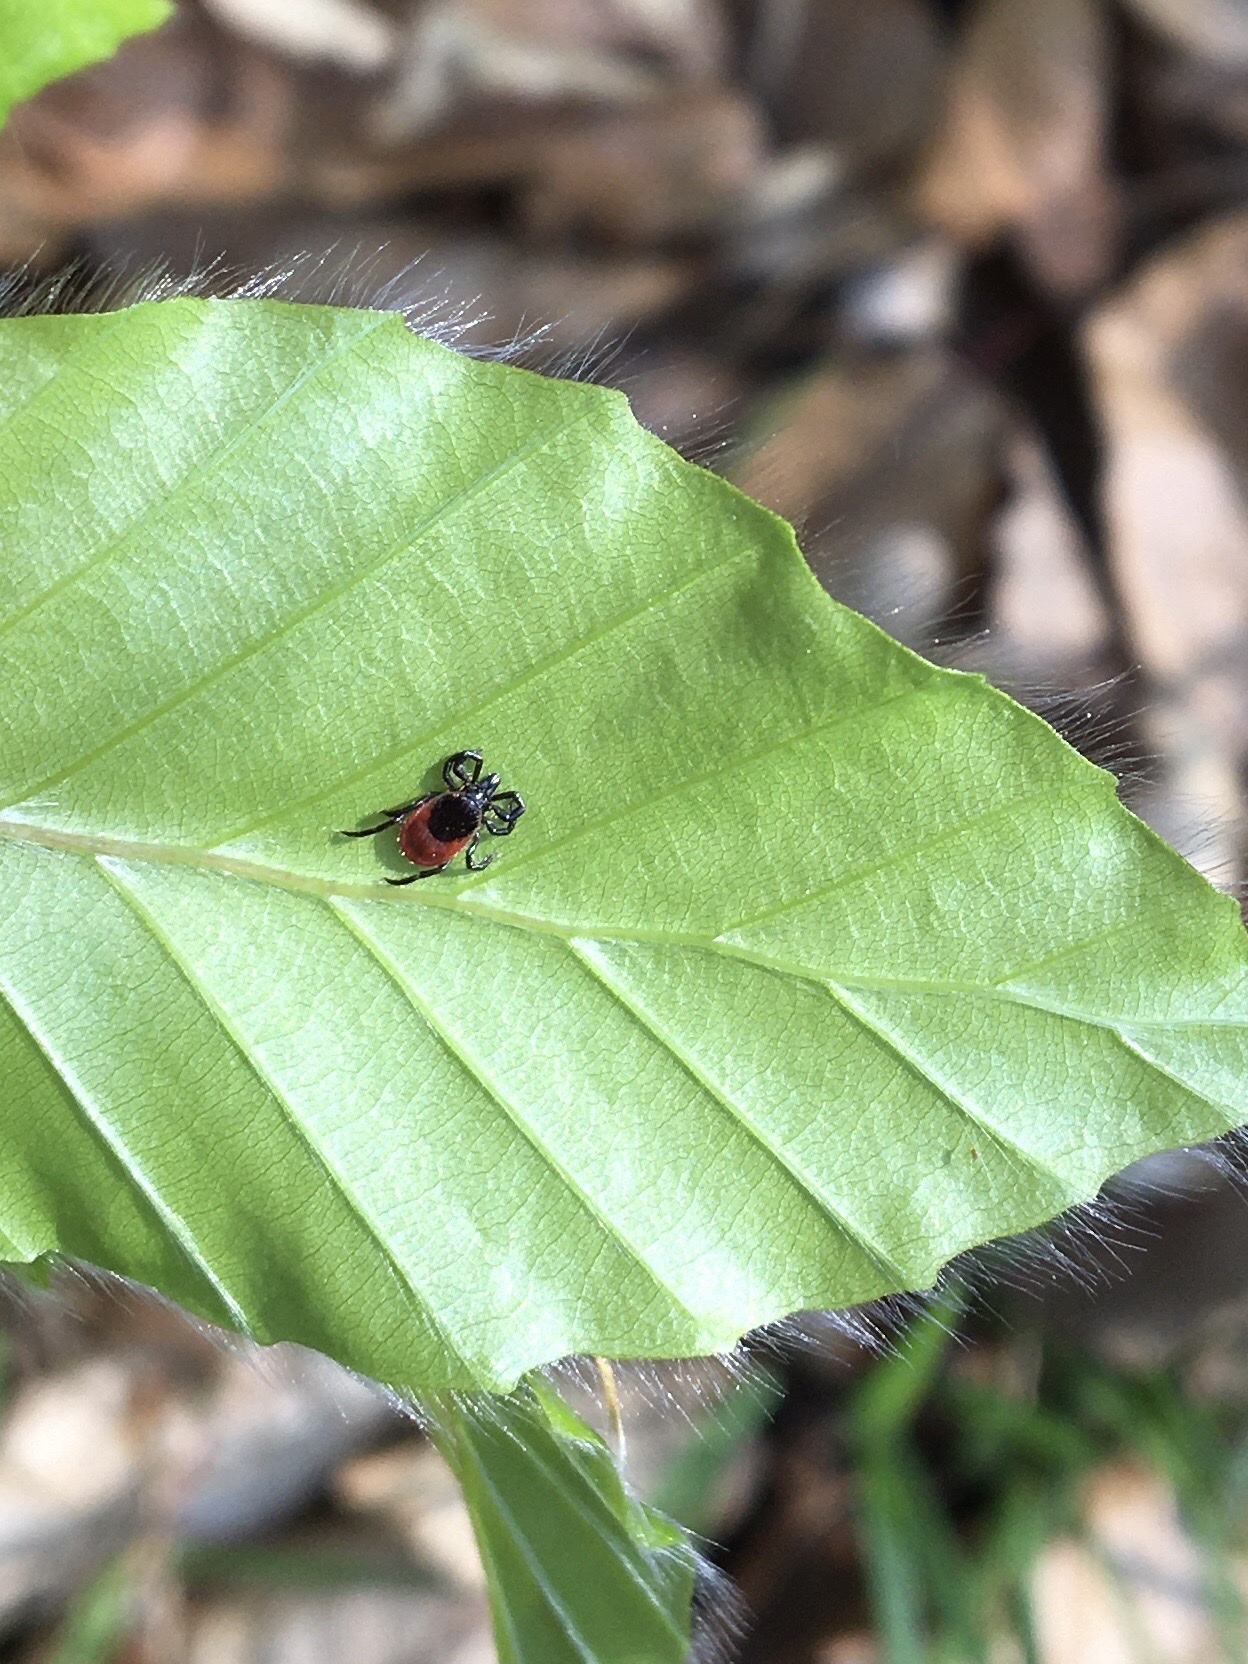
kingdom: Animalia
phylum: Arthropoda
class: Arachnida
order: Ixodida
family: Ixodidae
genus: Ixodes
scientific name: Ixodes ricinus
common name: Castor bean tick
